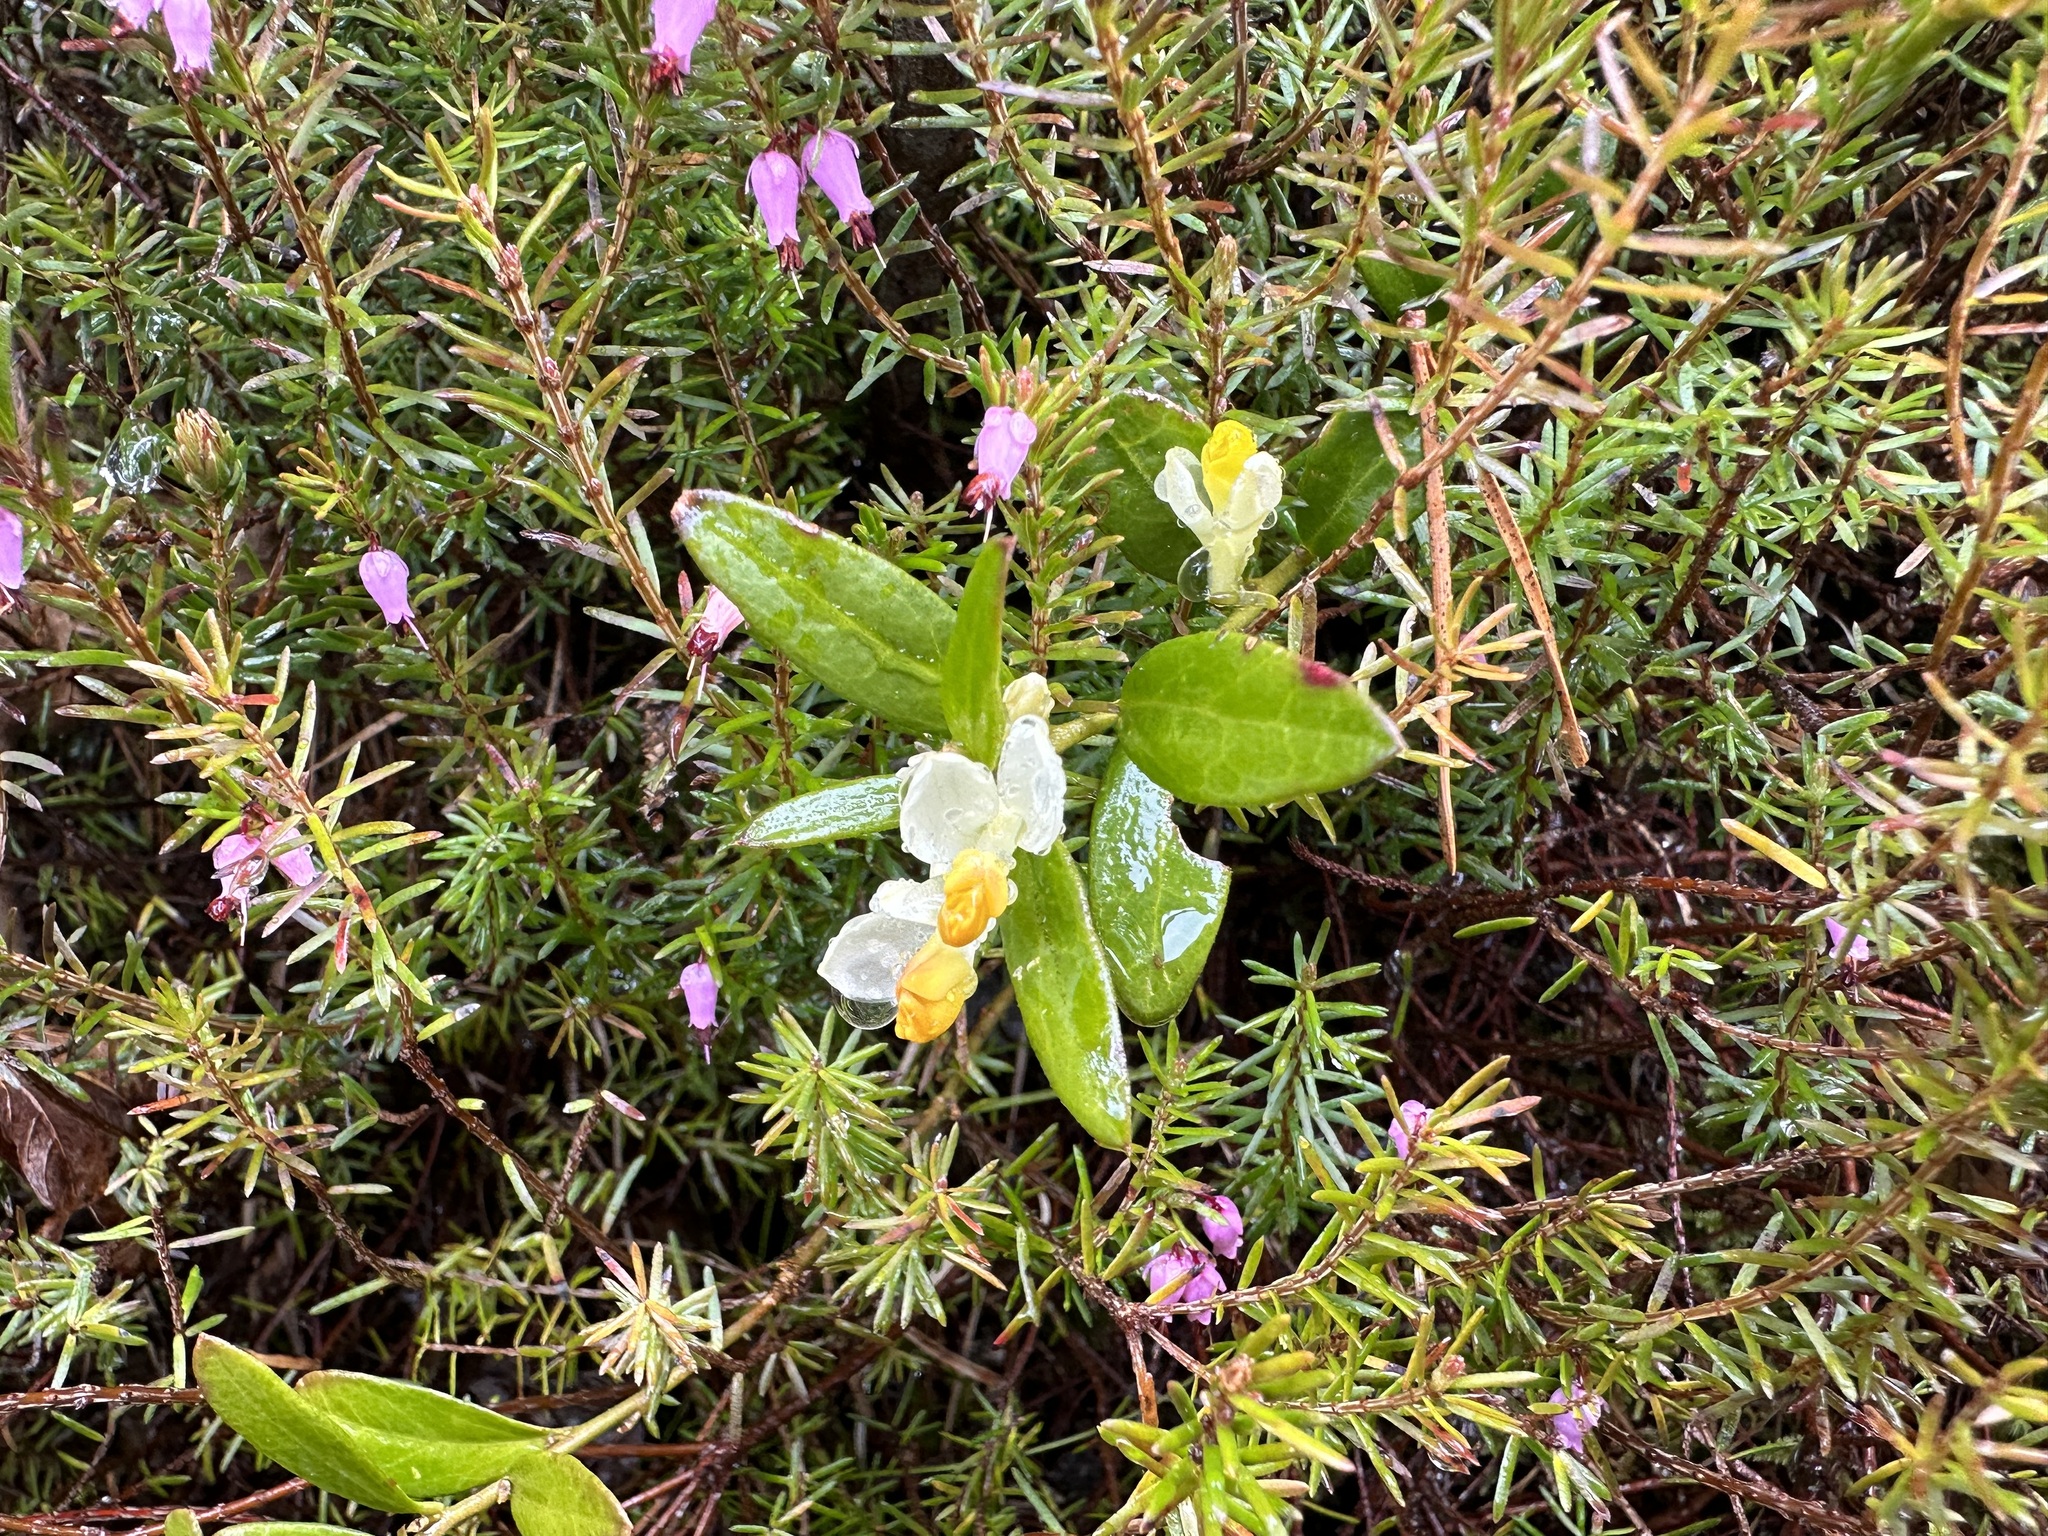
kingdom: Plantae
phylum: Tracheophyta
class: Magnoliopsida
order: Fabales
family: Polygalaceae
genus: Polygaloides
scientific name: Polygaloides chamaebuxus
